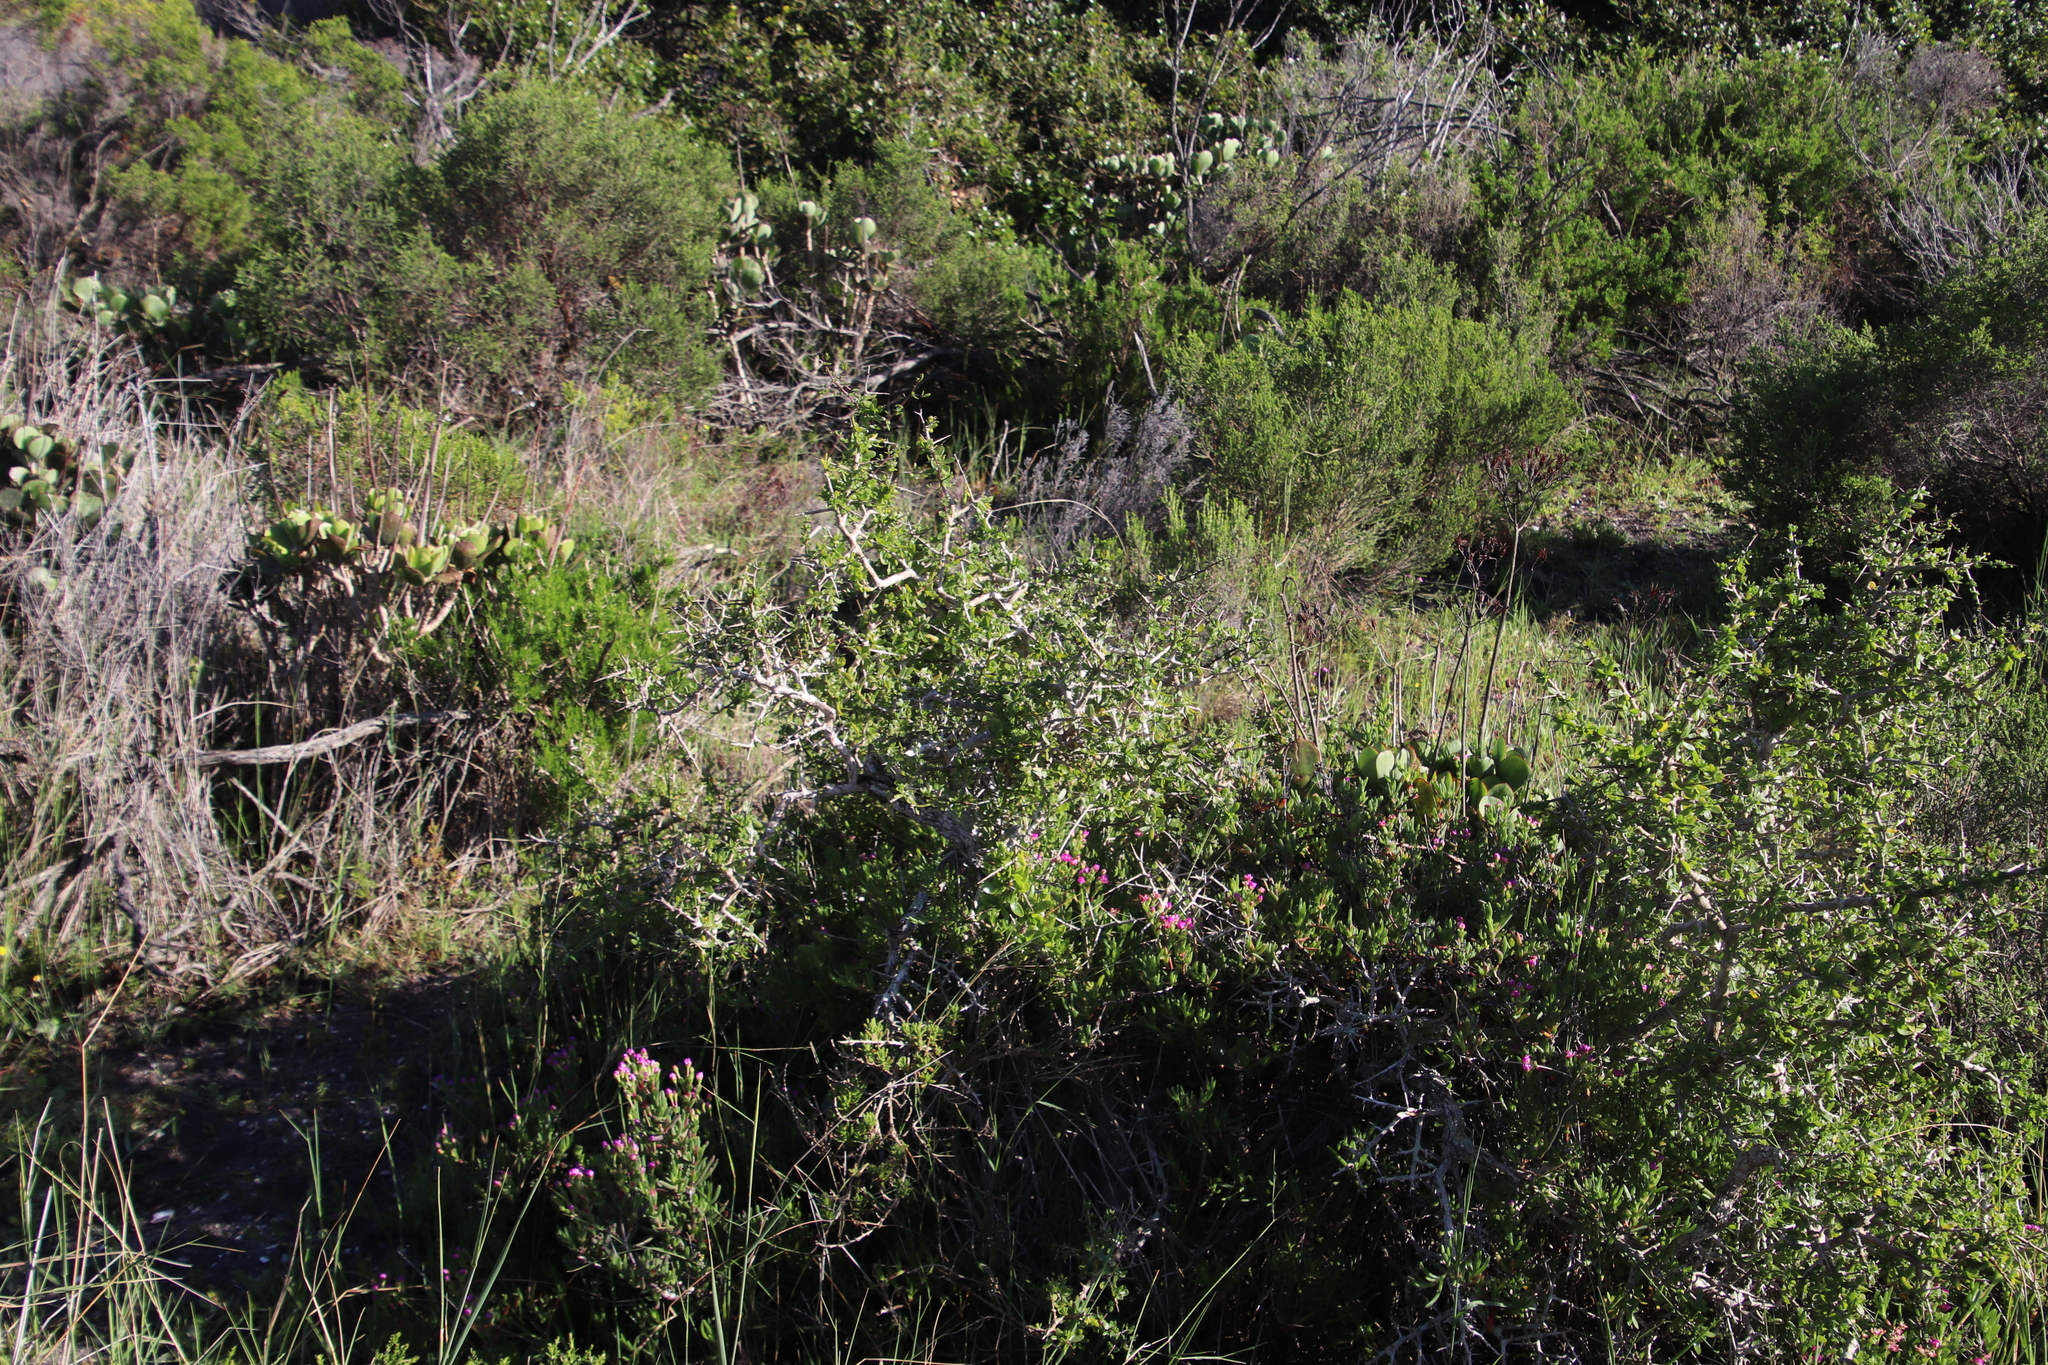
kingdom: Plantae
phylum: Tracheophyta
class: Magnoliopsida
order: Solanales
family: Solanaceae
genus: Lycium
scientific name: Lycium ferocissimum
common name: African boxthorn
